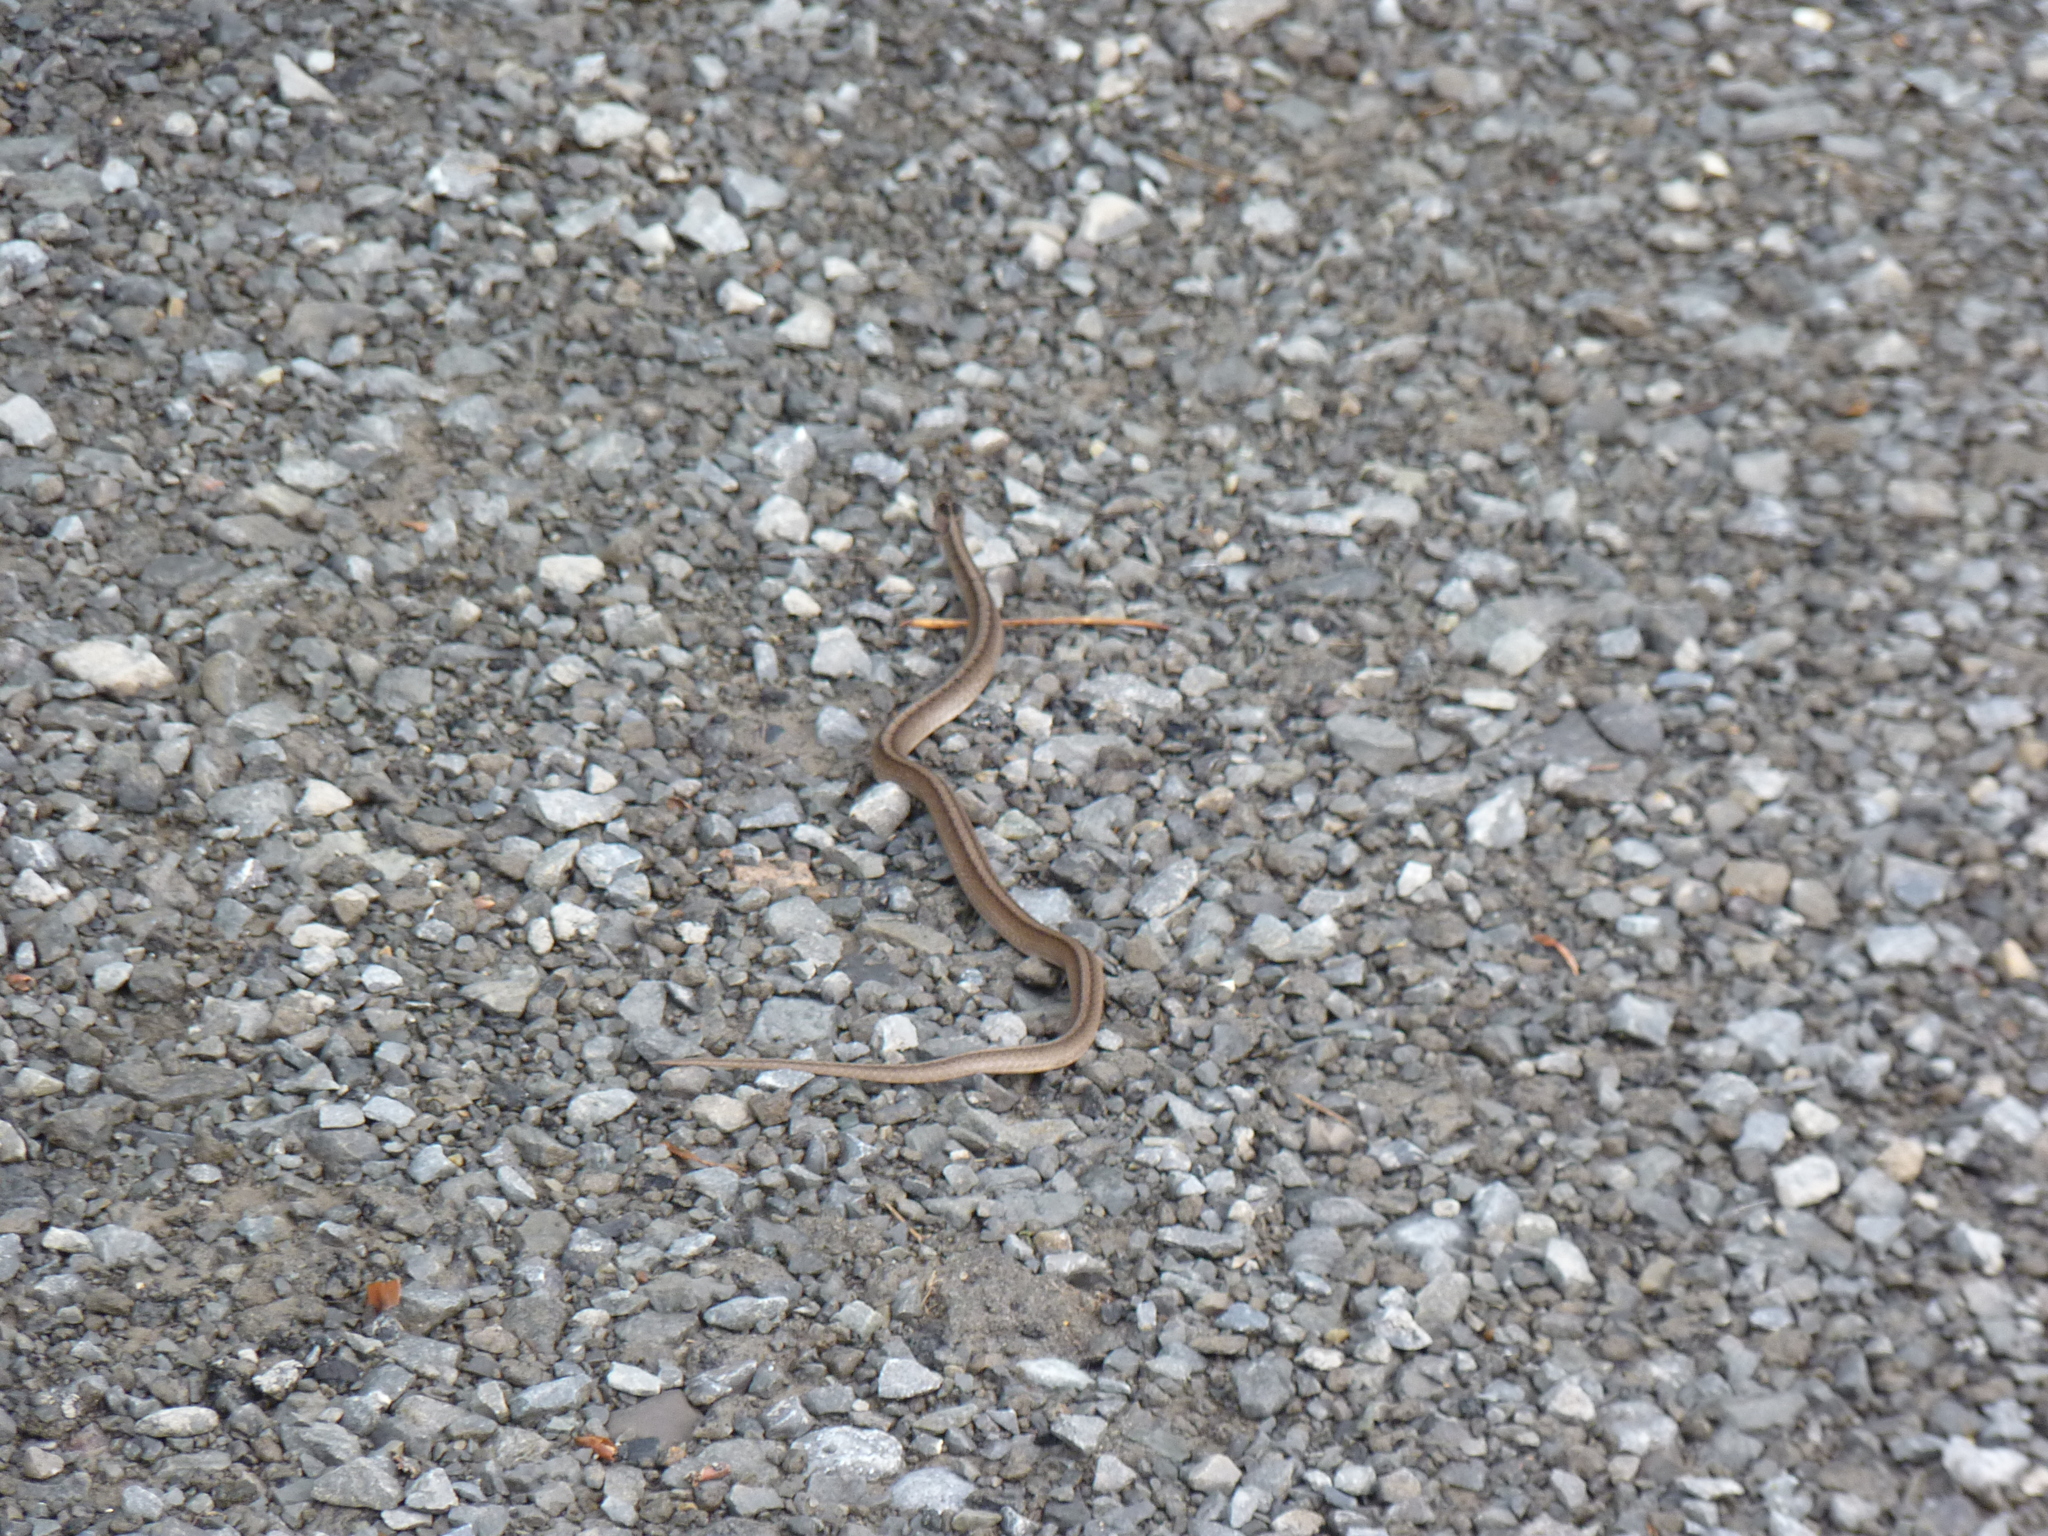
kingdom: Animalia
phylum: Chordata
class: Squamata
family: Colubridae
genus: Storeria
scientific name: Storeria dekayi
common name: (dekay’s) brown snake
